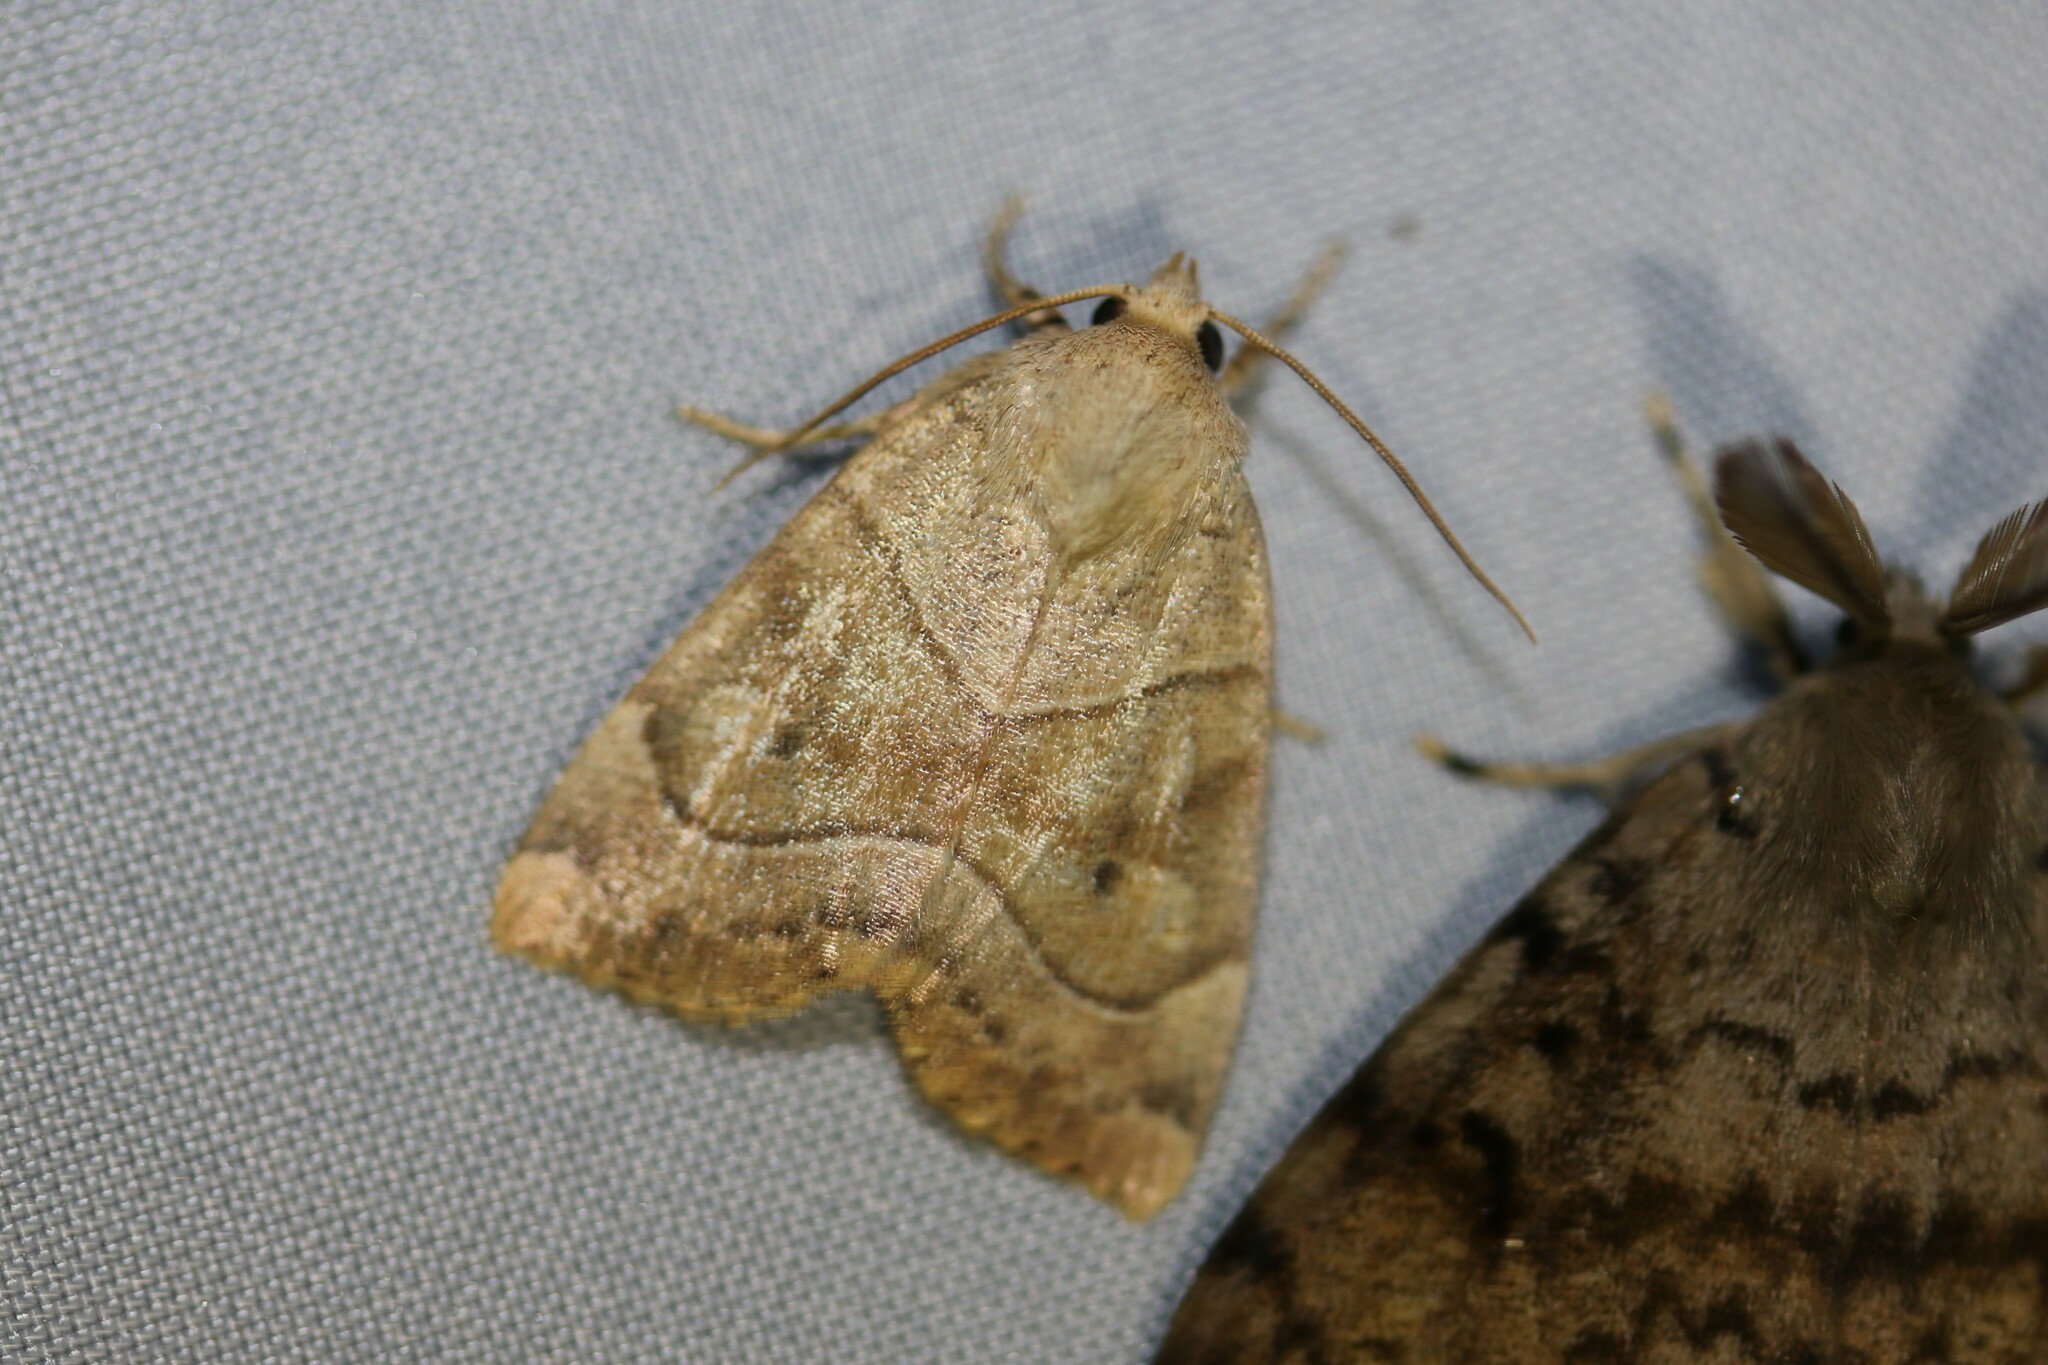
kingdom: Animalia
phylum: Arthropoda
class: Insecta
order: Lepidoptera
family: Noctuidae
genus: Cosmia
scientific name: Cosmia trapezina
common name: Dun-bar
